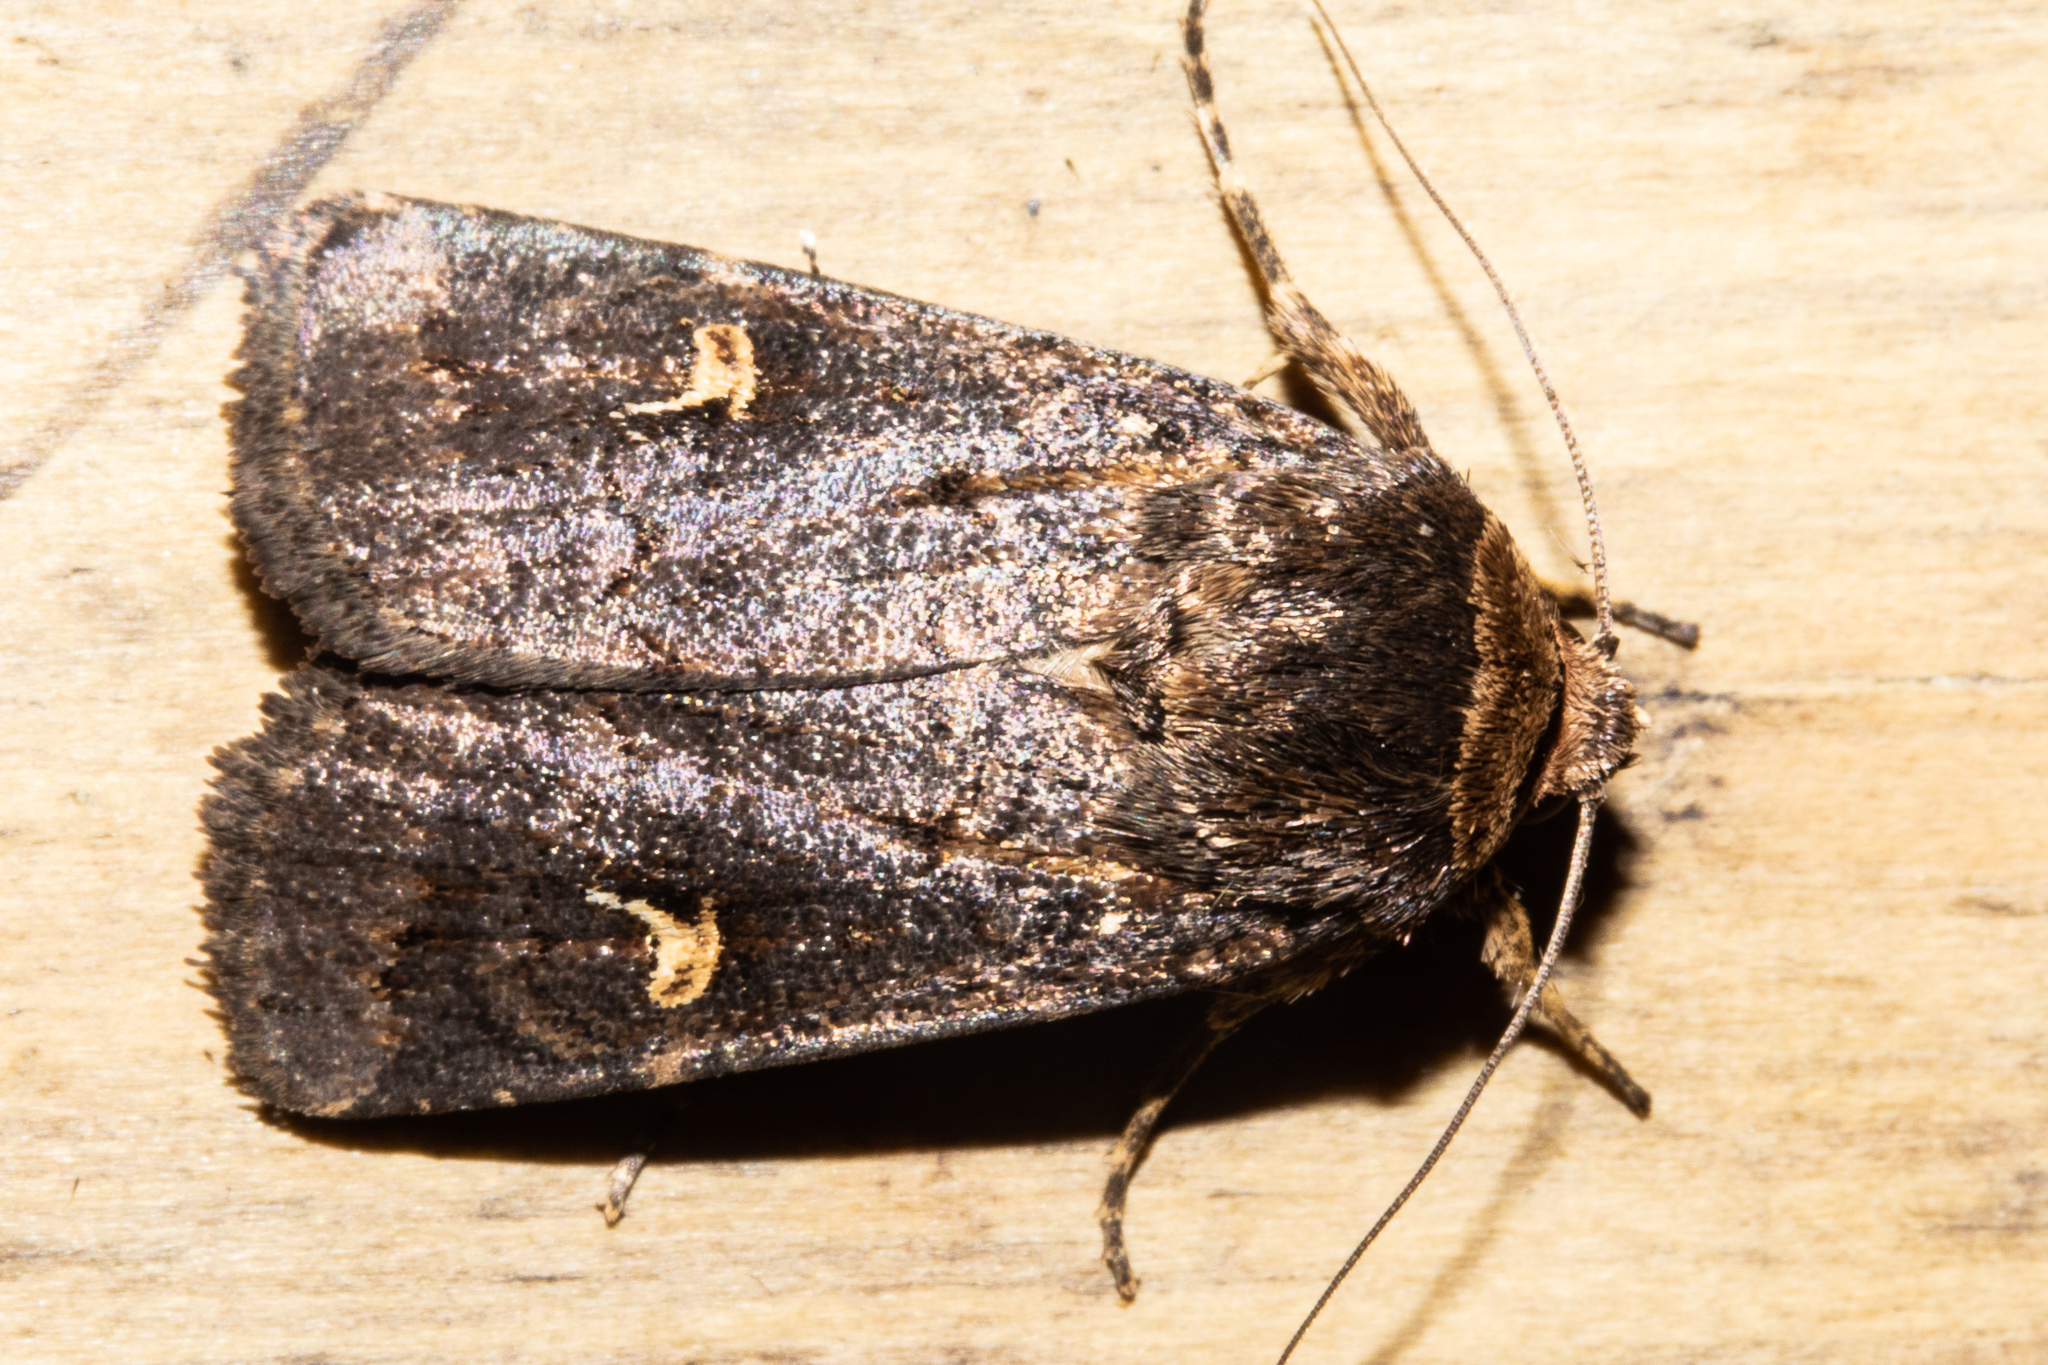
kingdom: Animalia
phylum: Arthropoda
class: Insecta
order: Lepidoptera
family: Noctuidae
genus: Proteuxoa
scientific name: Proteuxoa tetronycha
